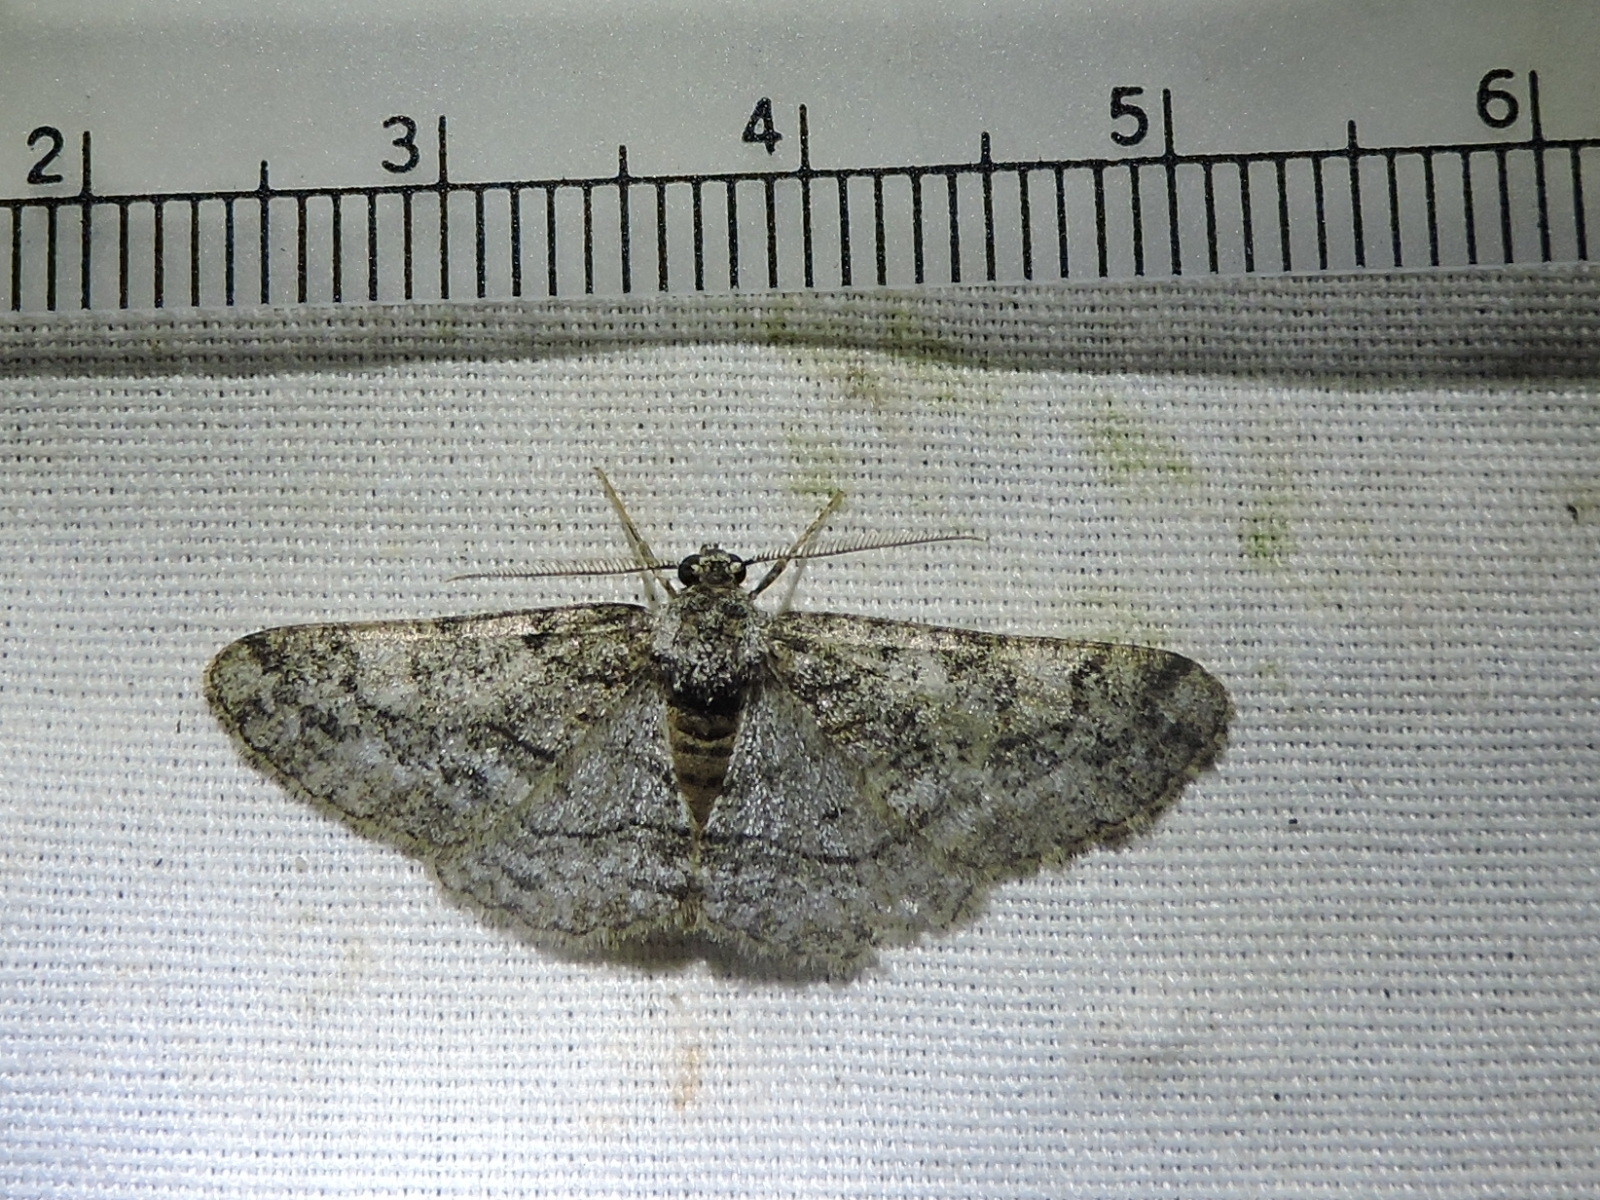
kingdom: Animalia
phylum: Arthropoda
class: Insecta
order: Lepidoptera
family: Geometridae
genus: Parapheromia
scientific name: Parapheromia cassinoi
